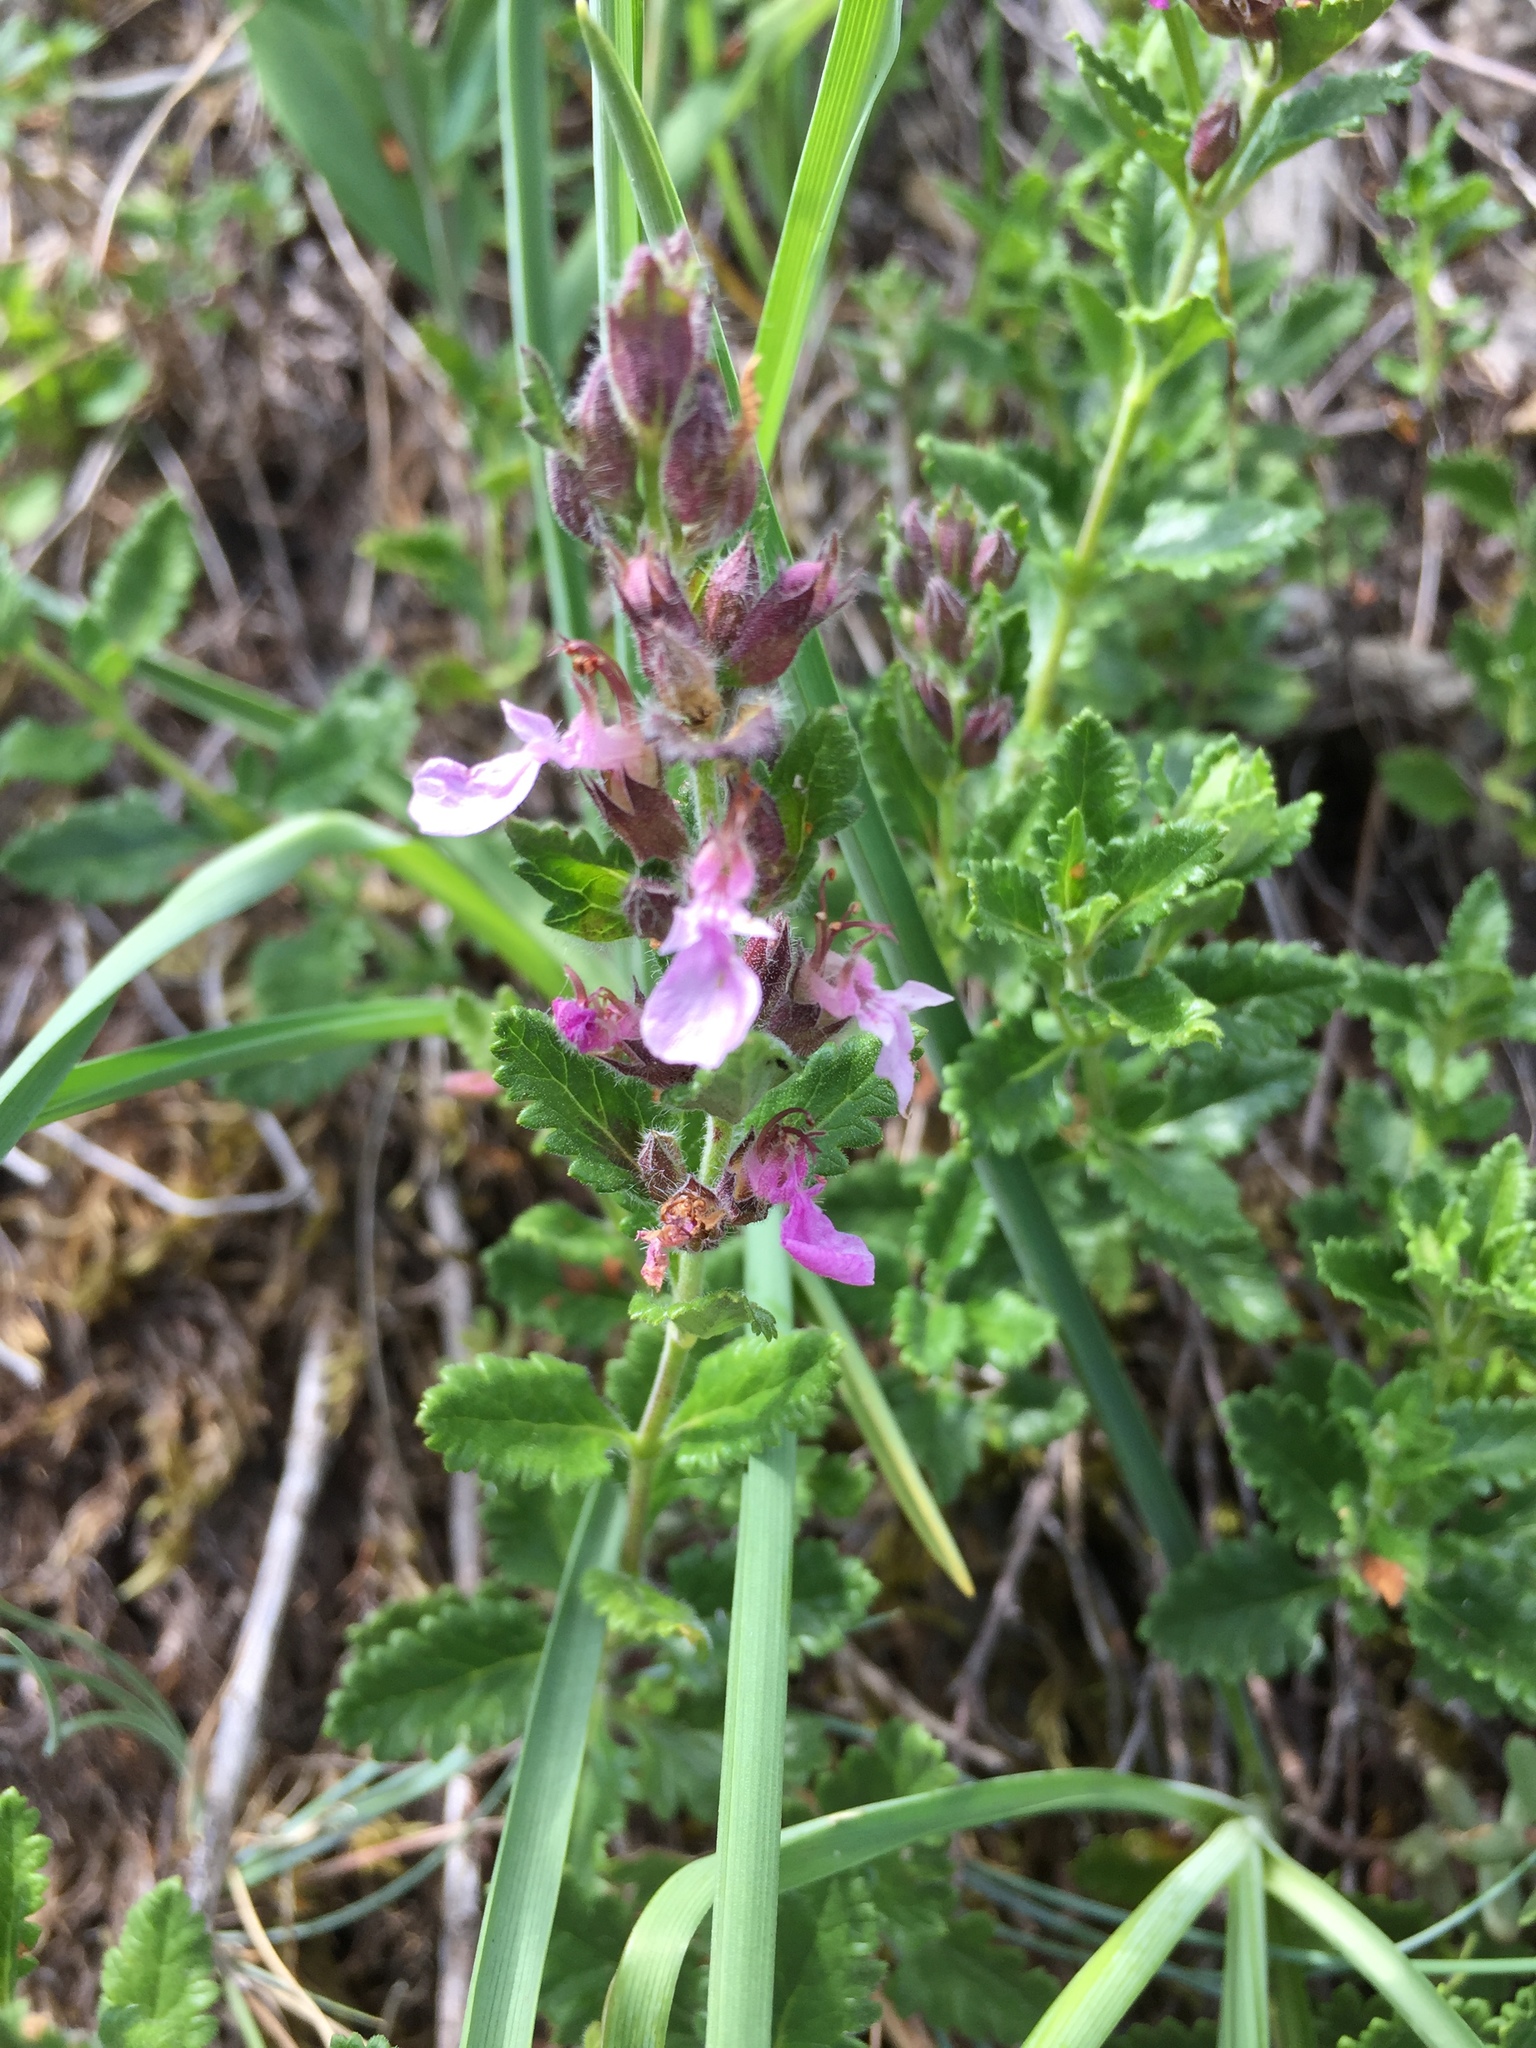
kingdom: Plantae
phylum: Tracheophyta
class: Magnoliopsida
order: Lamiales
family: Lamiaceae
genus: Teucrium
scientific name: Teucrium chamaedrys
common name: Wall germander
